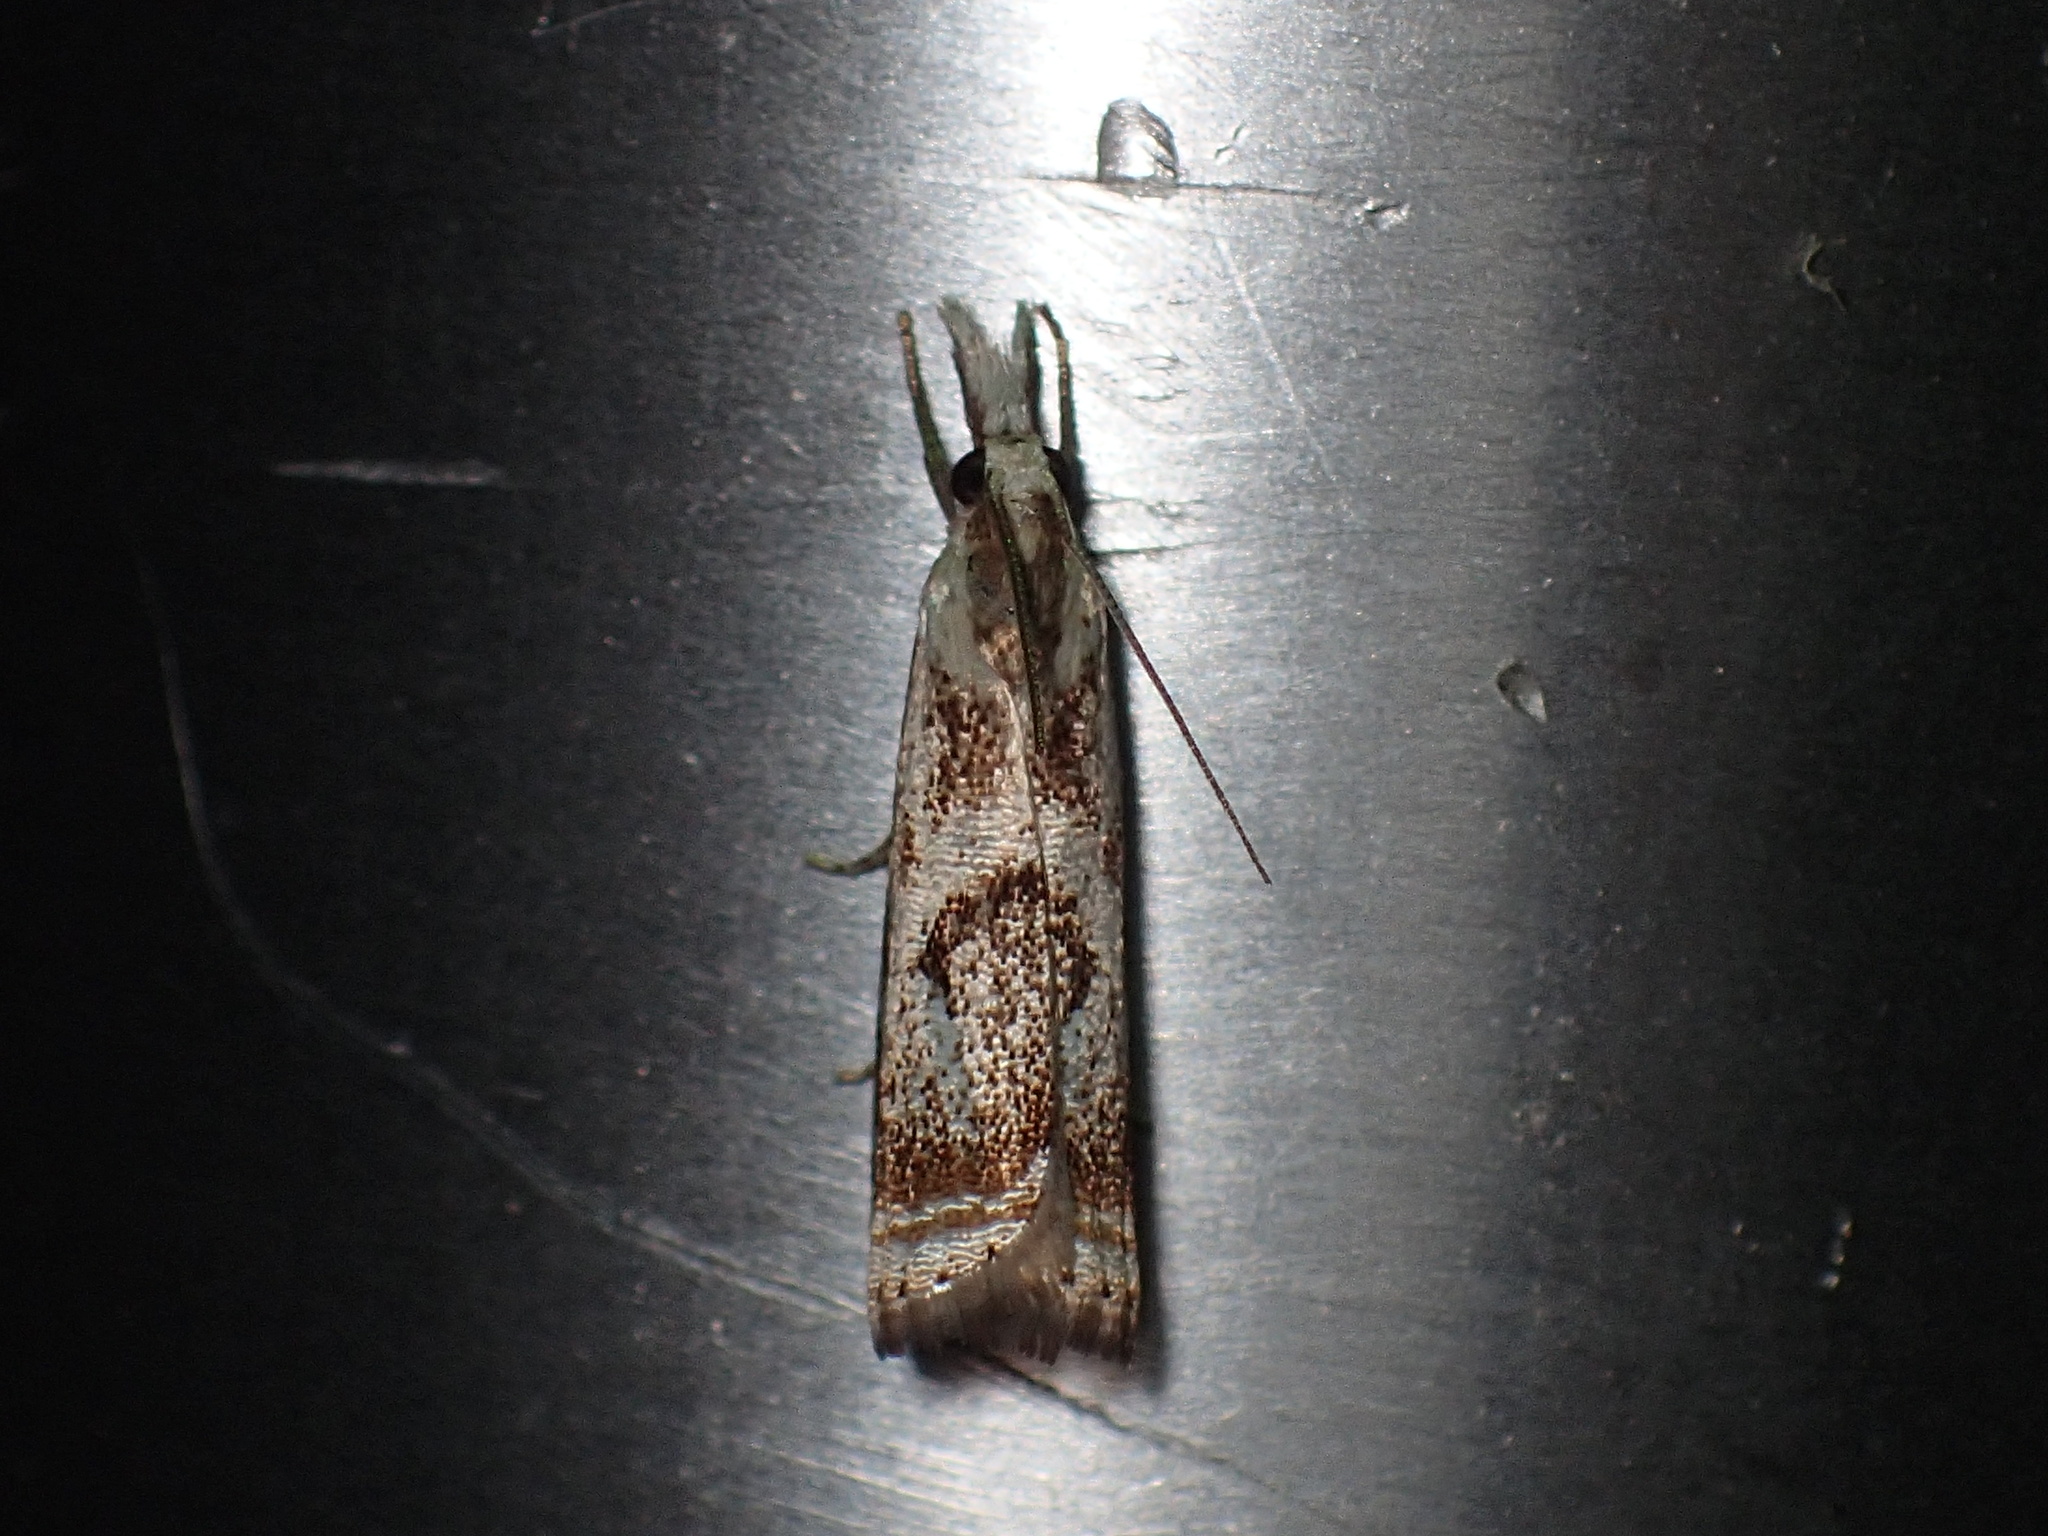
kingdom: Animalia
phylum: Arthropoda
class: Insecta
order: Lepidoptera
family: Crambidae
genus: Microcrambus
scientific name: Microcrambus elegans
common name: Elegant grass-veneer
